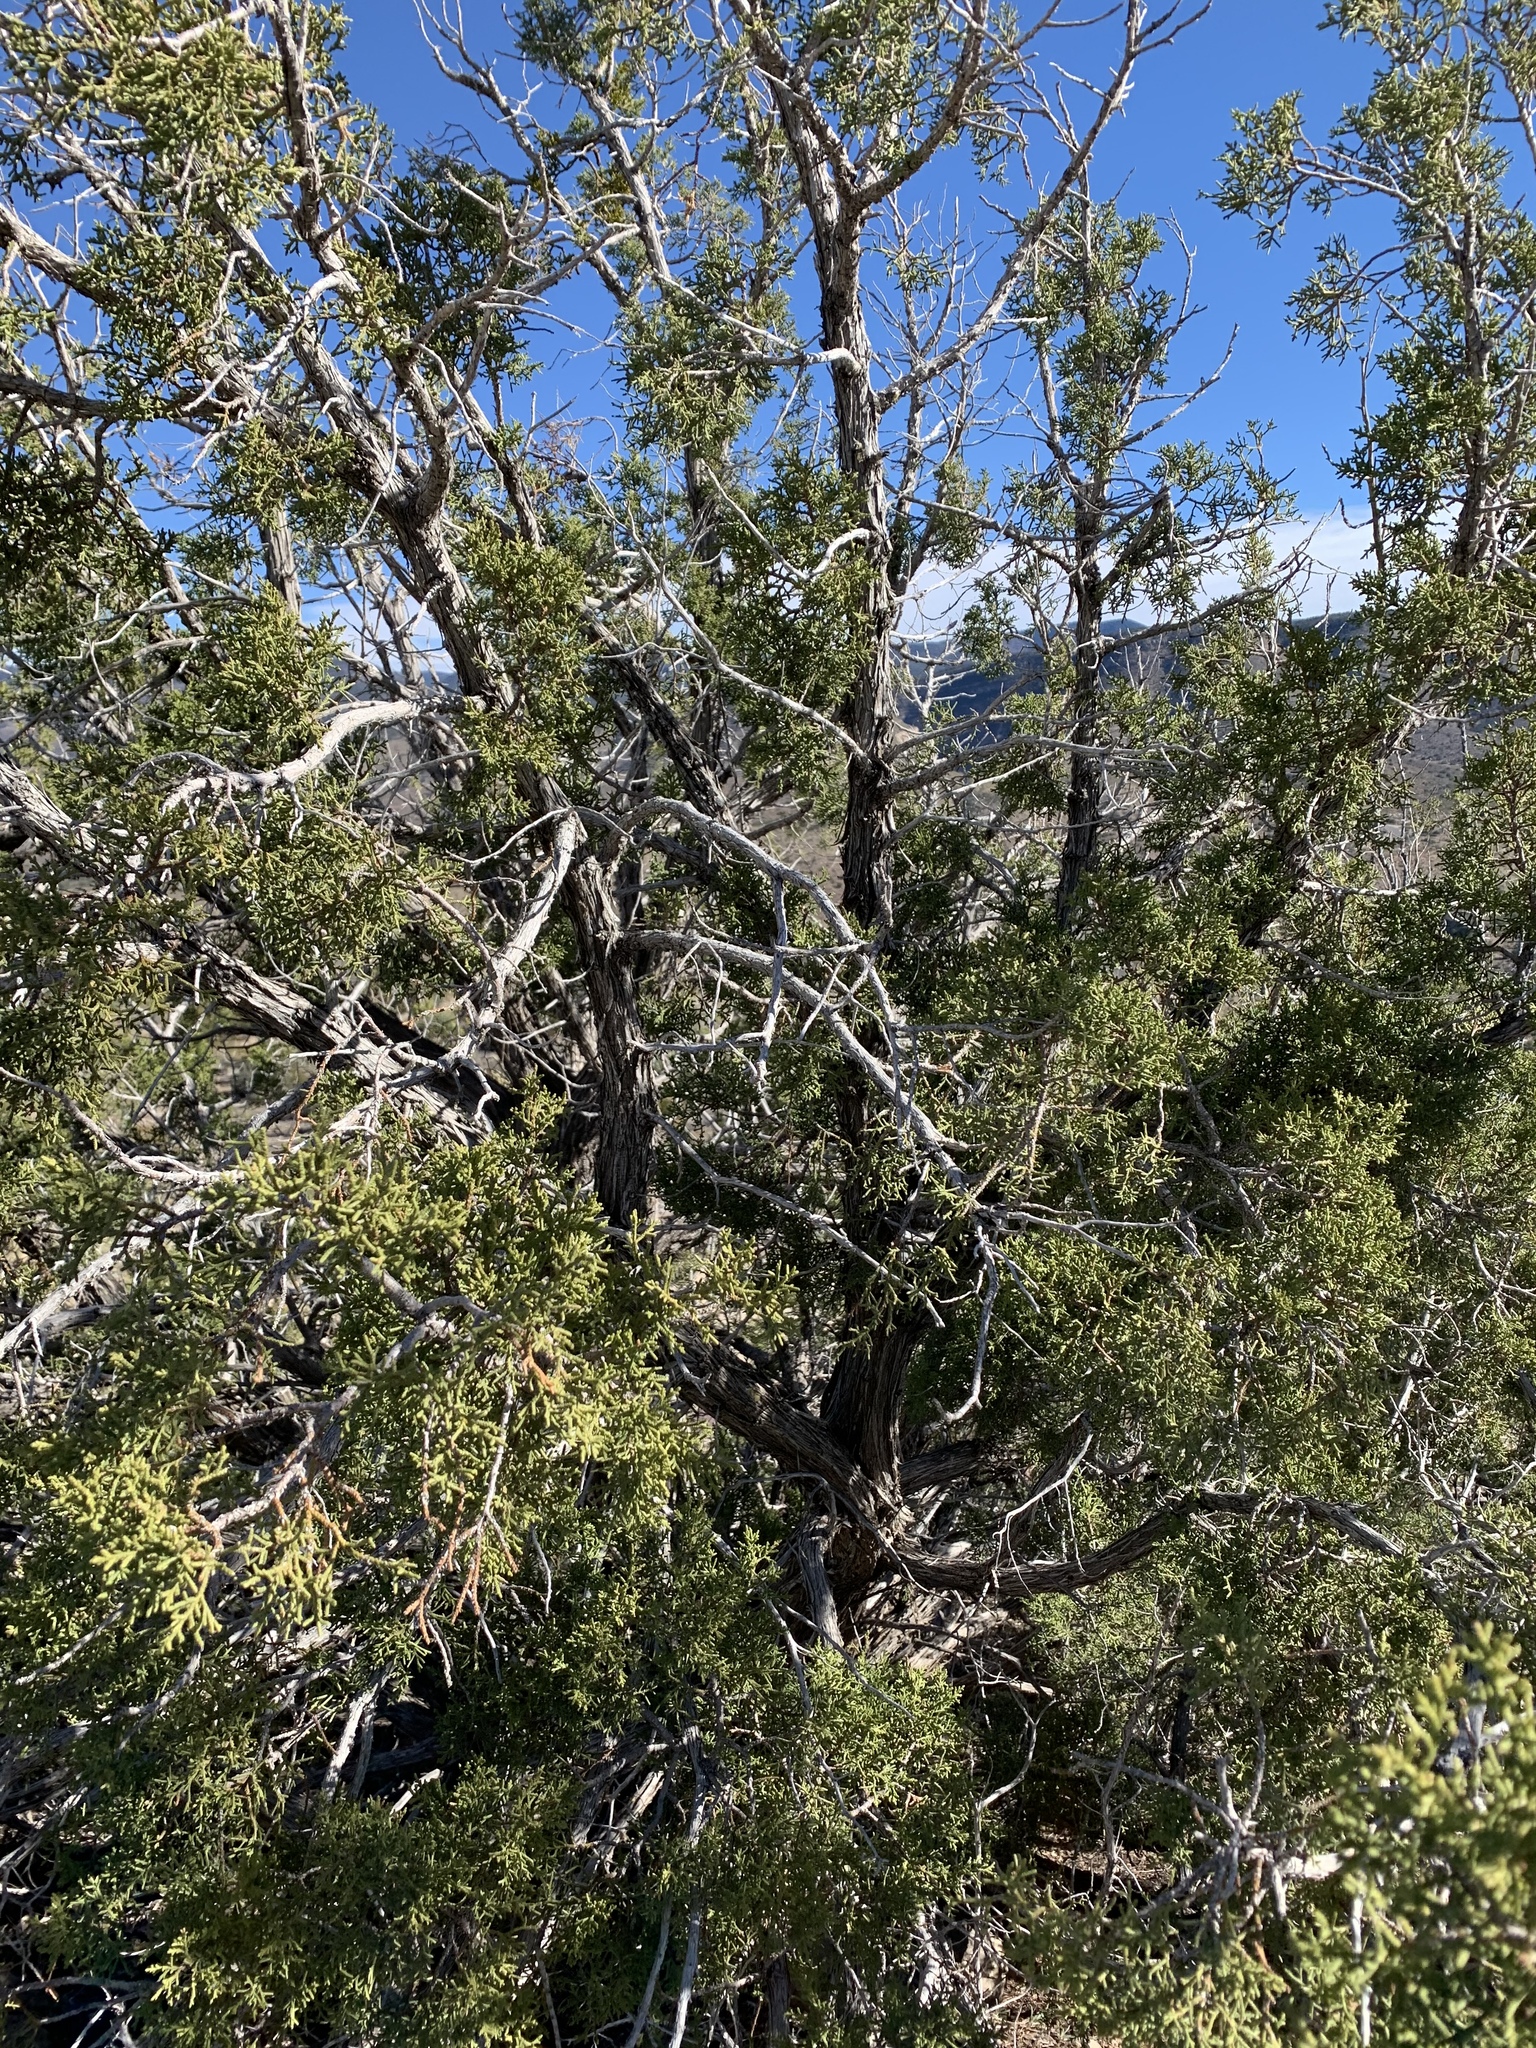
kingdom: Plantae
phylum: Tracheophyta
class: Pinopsida
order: Pinales
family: Cupressaceae
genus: Juniperus
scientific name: Juniperus monosperma
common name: One-seed juniper
